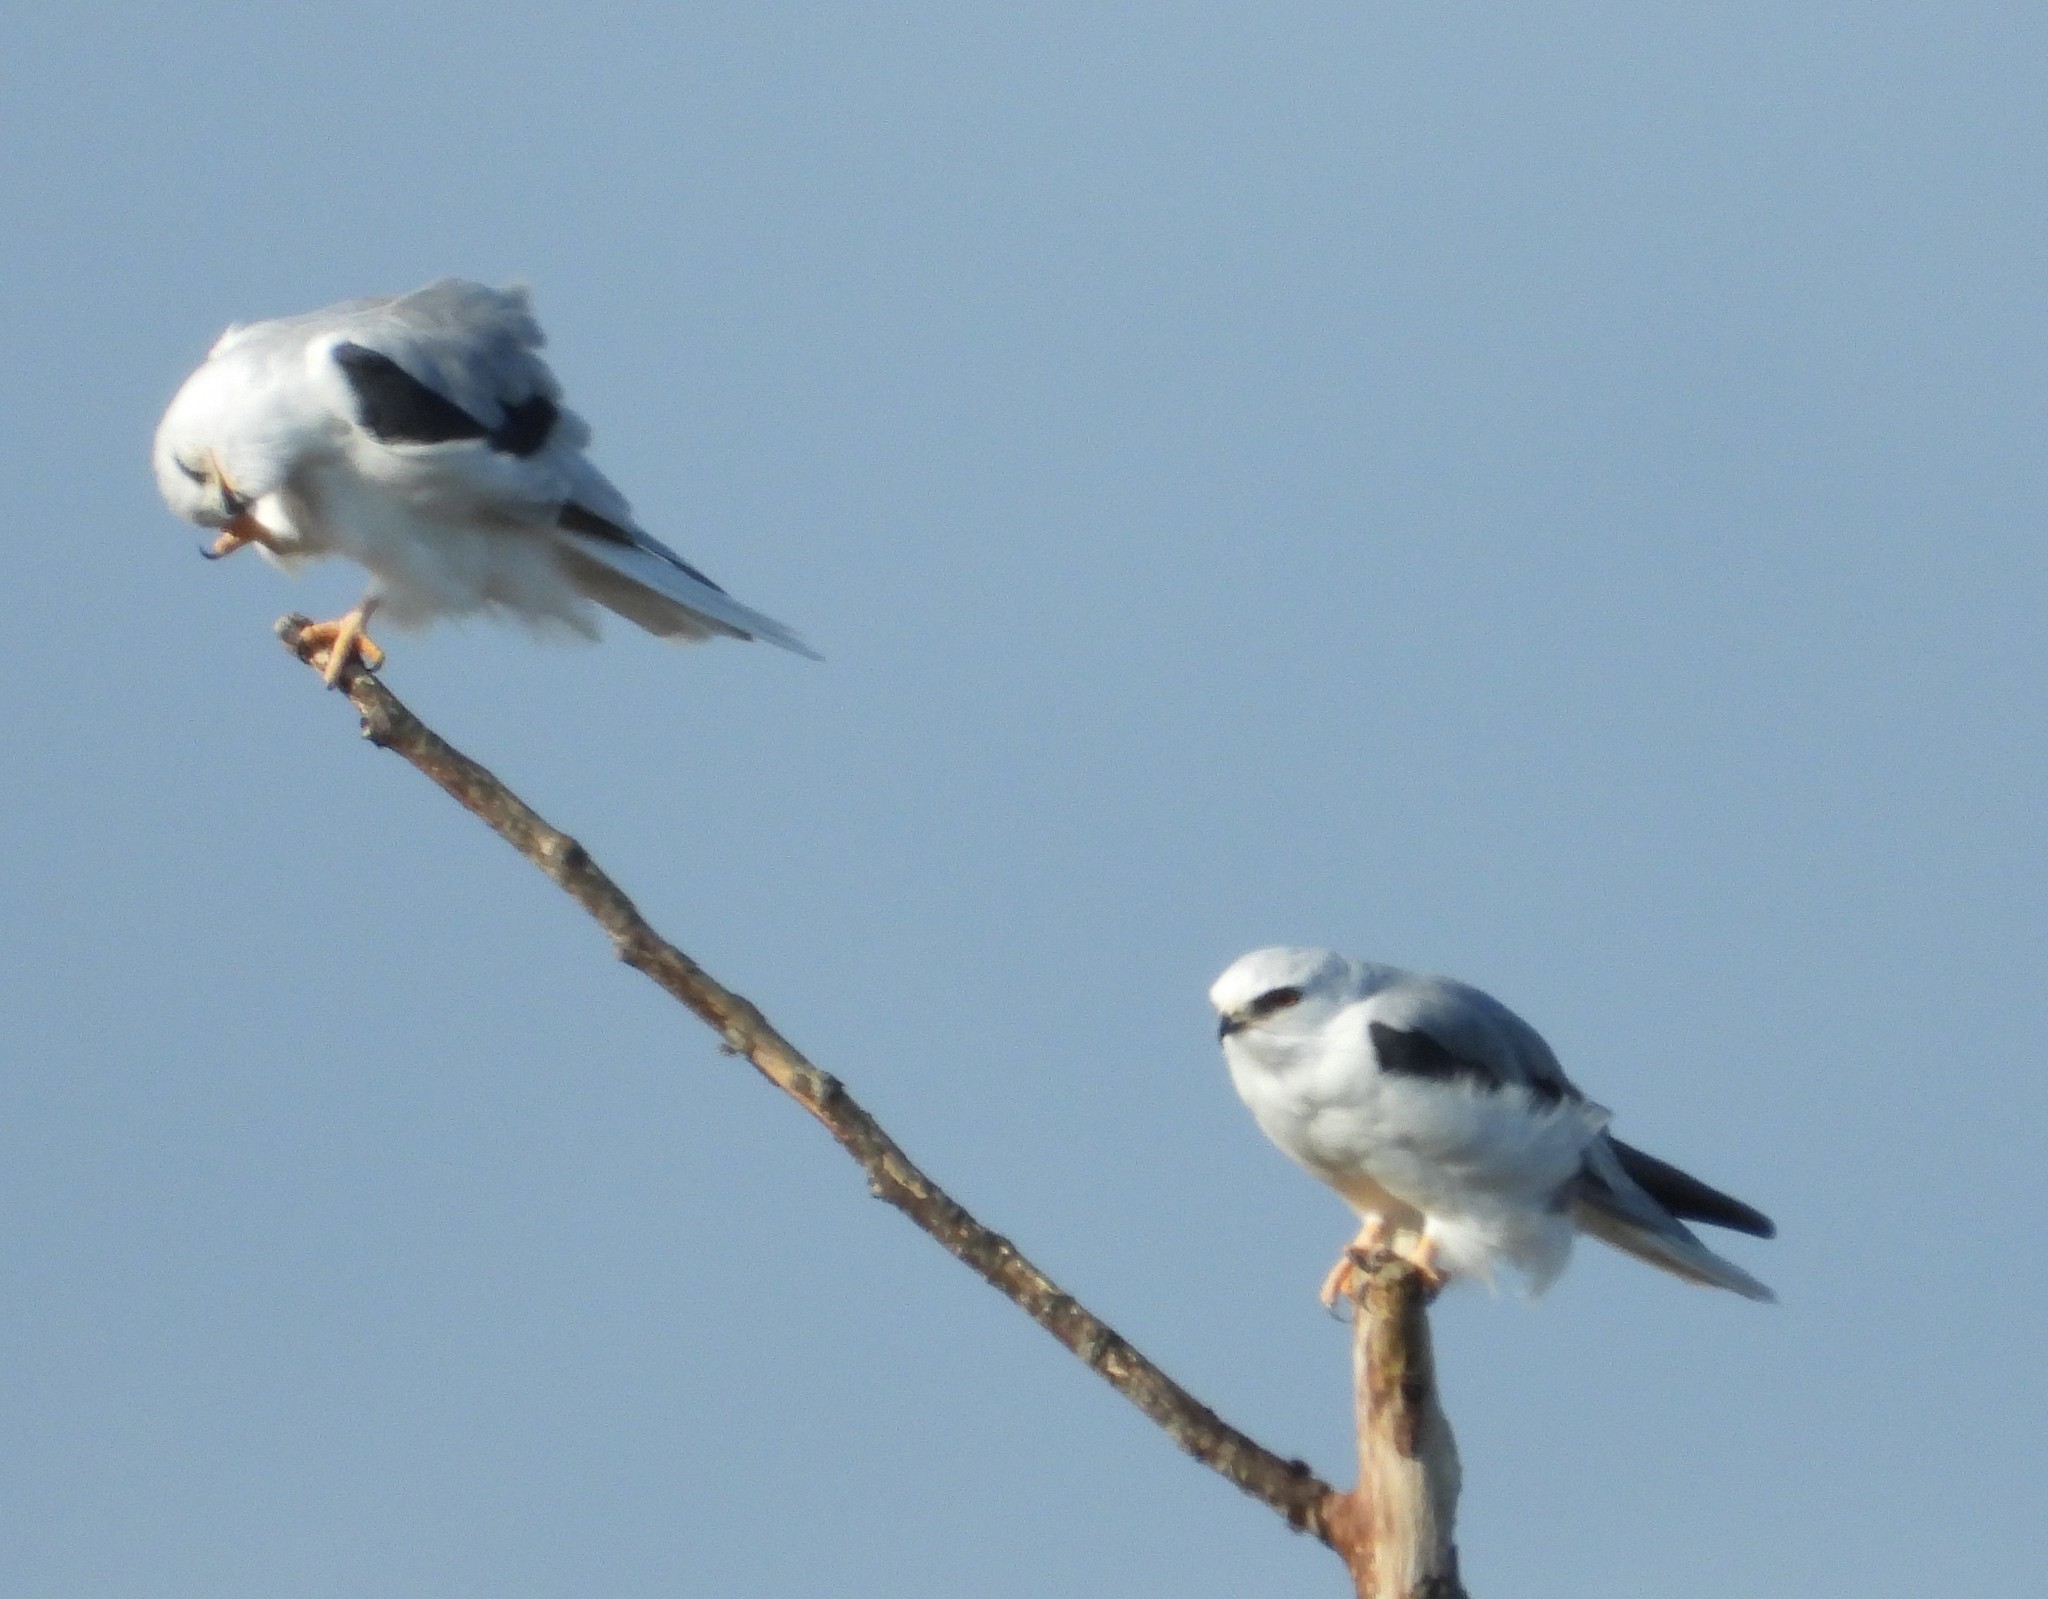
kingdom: Animalia
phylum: Chordata
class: Aves
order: Accipitriformes
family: Accipitridae
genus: Elanus
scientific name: Elanus leucurus
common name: White-tailed kite
